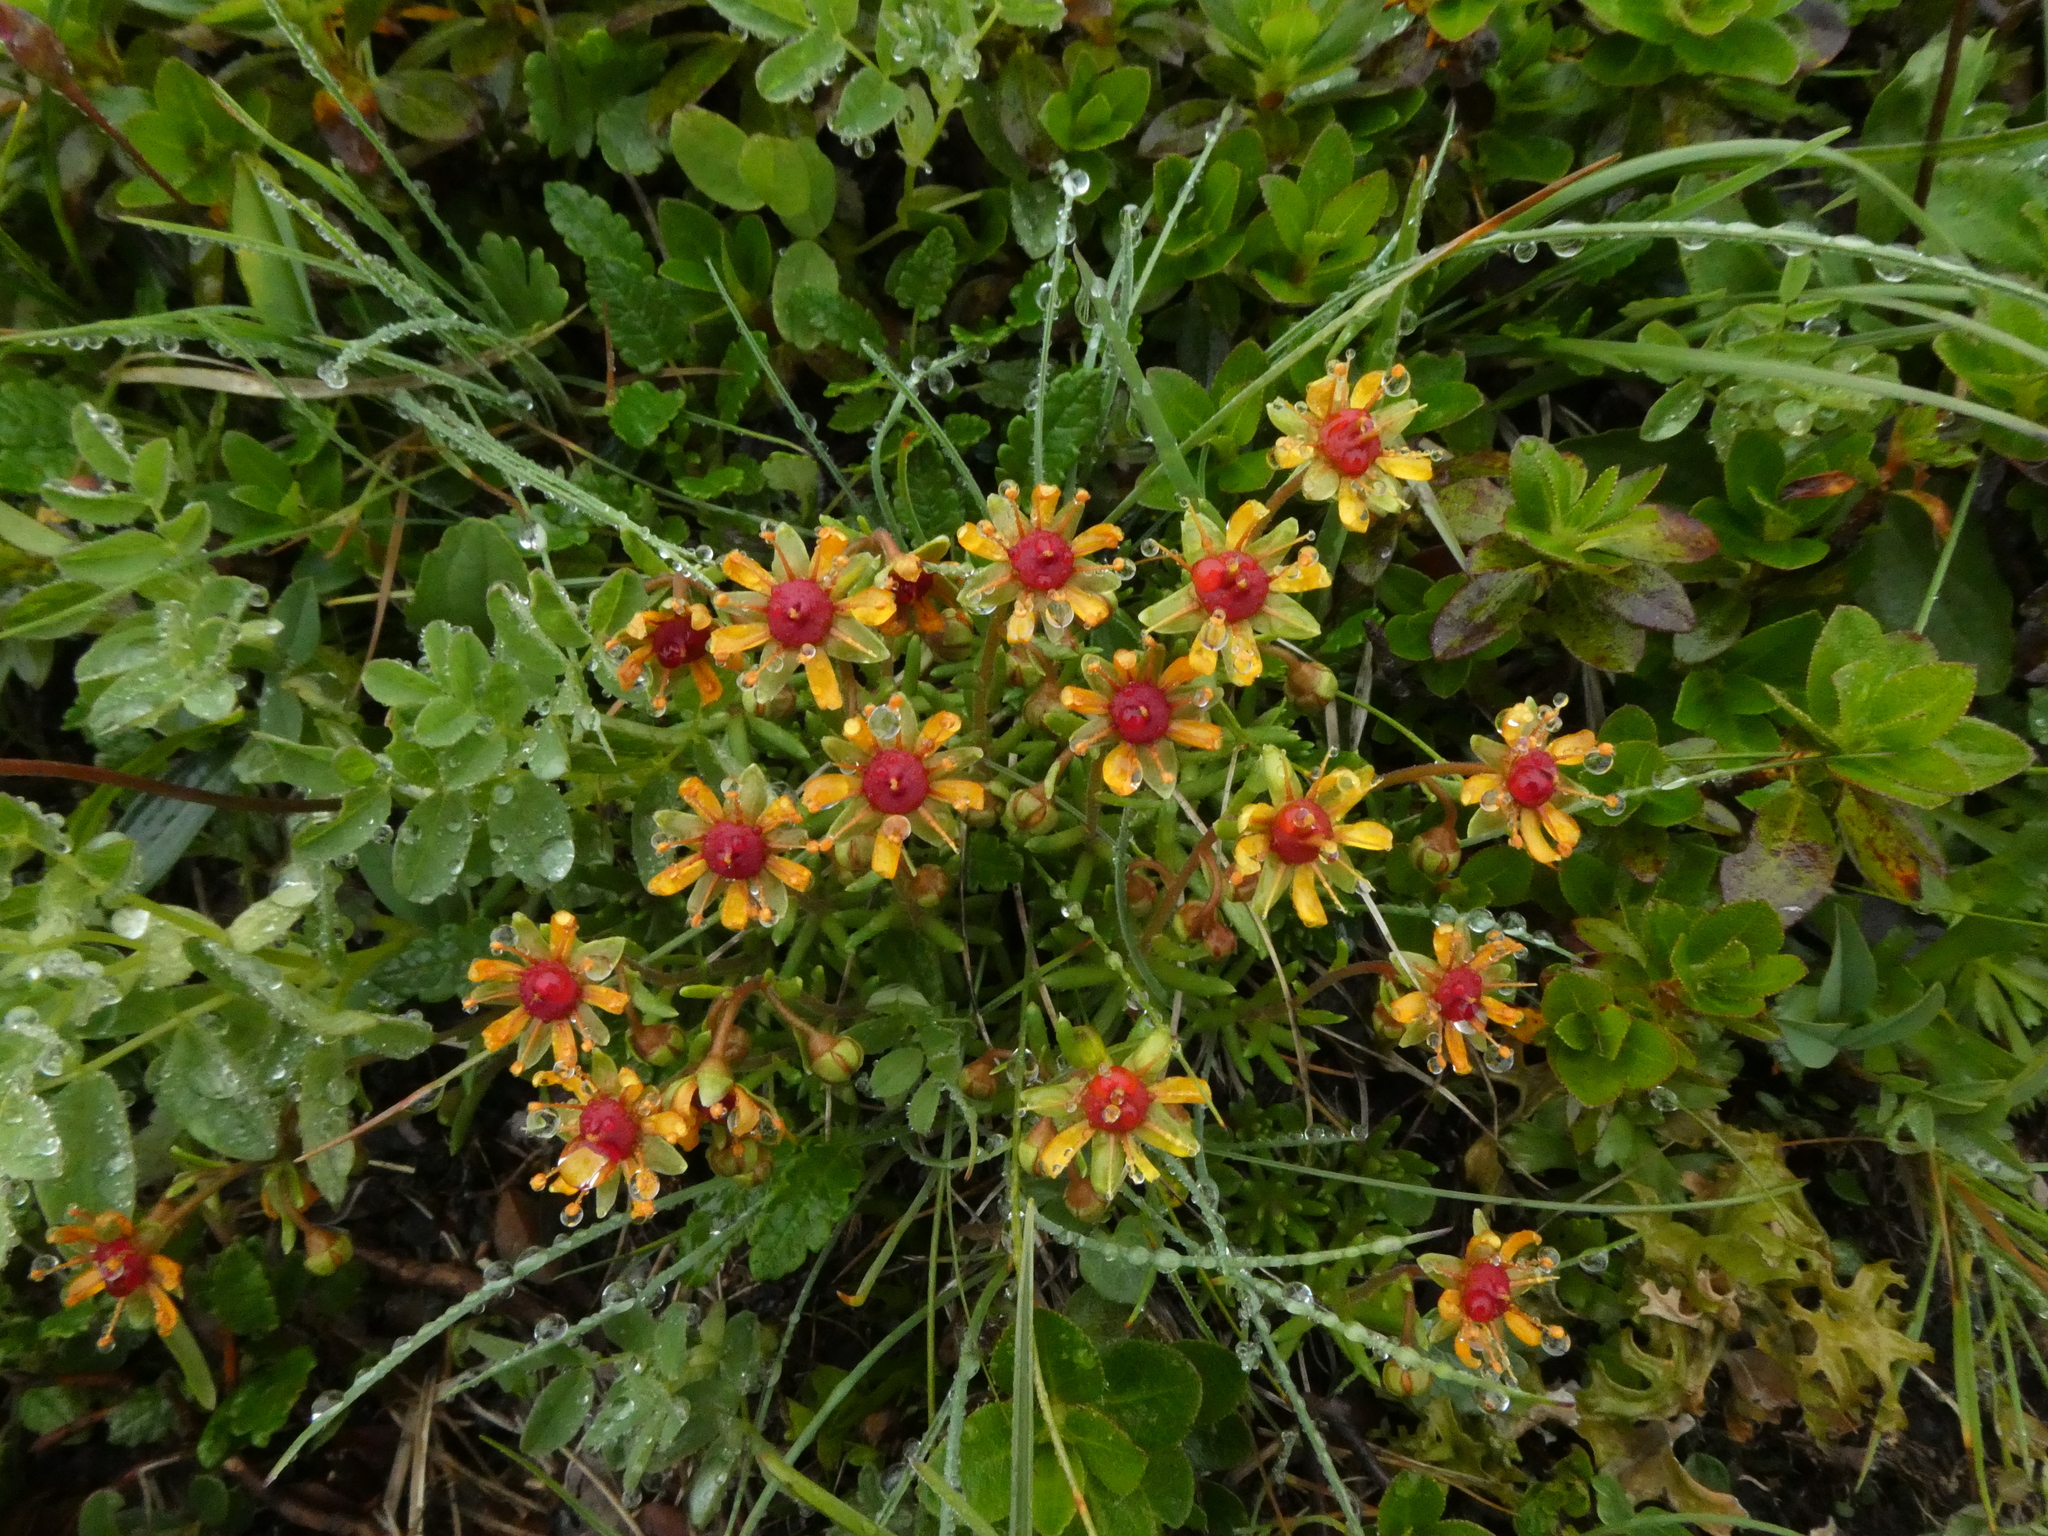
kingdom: Plantae
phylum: Tracheophyta
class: Magnoliopsida
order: Saxifragales
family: Saxifragaceae
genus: Saxifraga
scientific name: Saxifraga aizoides
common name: Yellow mountain saxifrage
